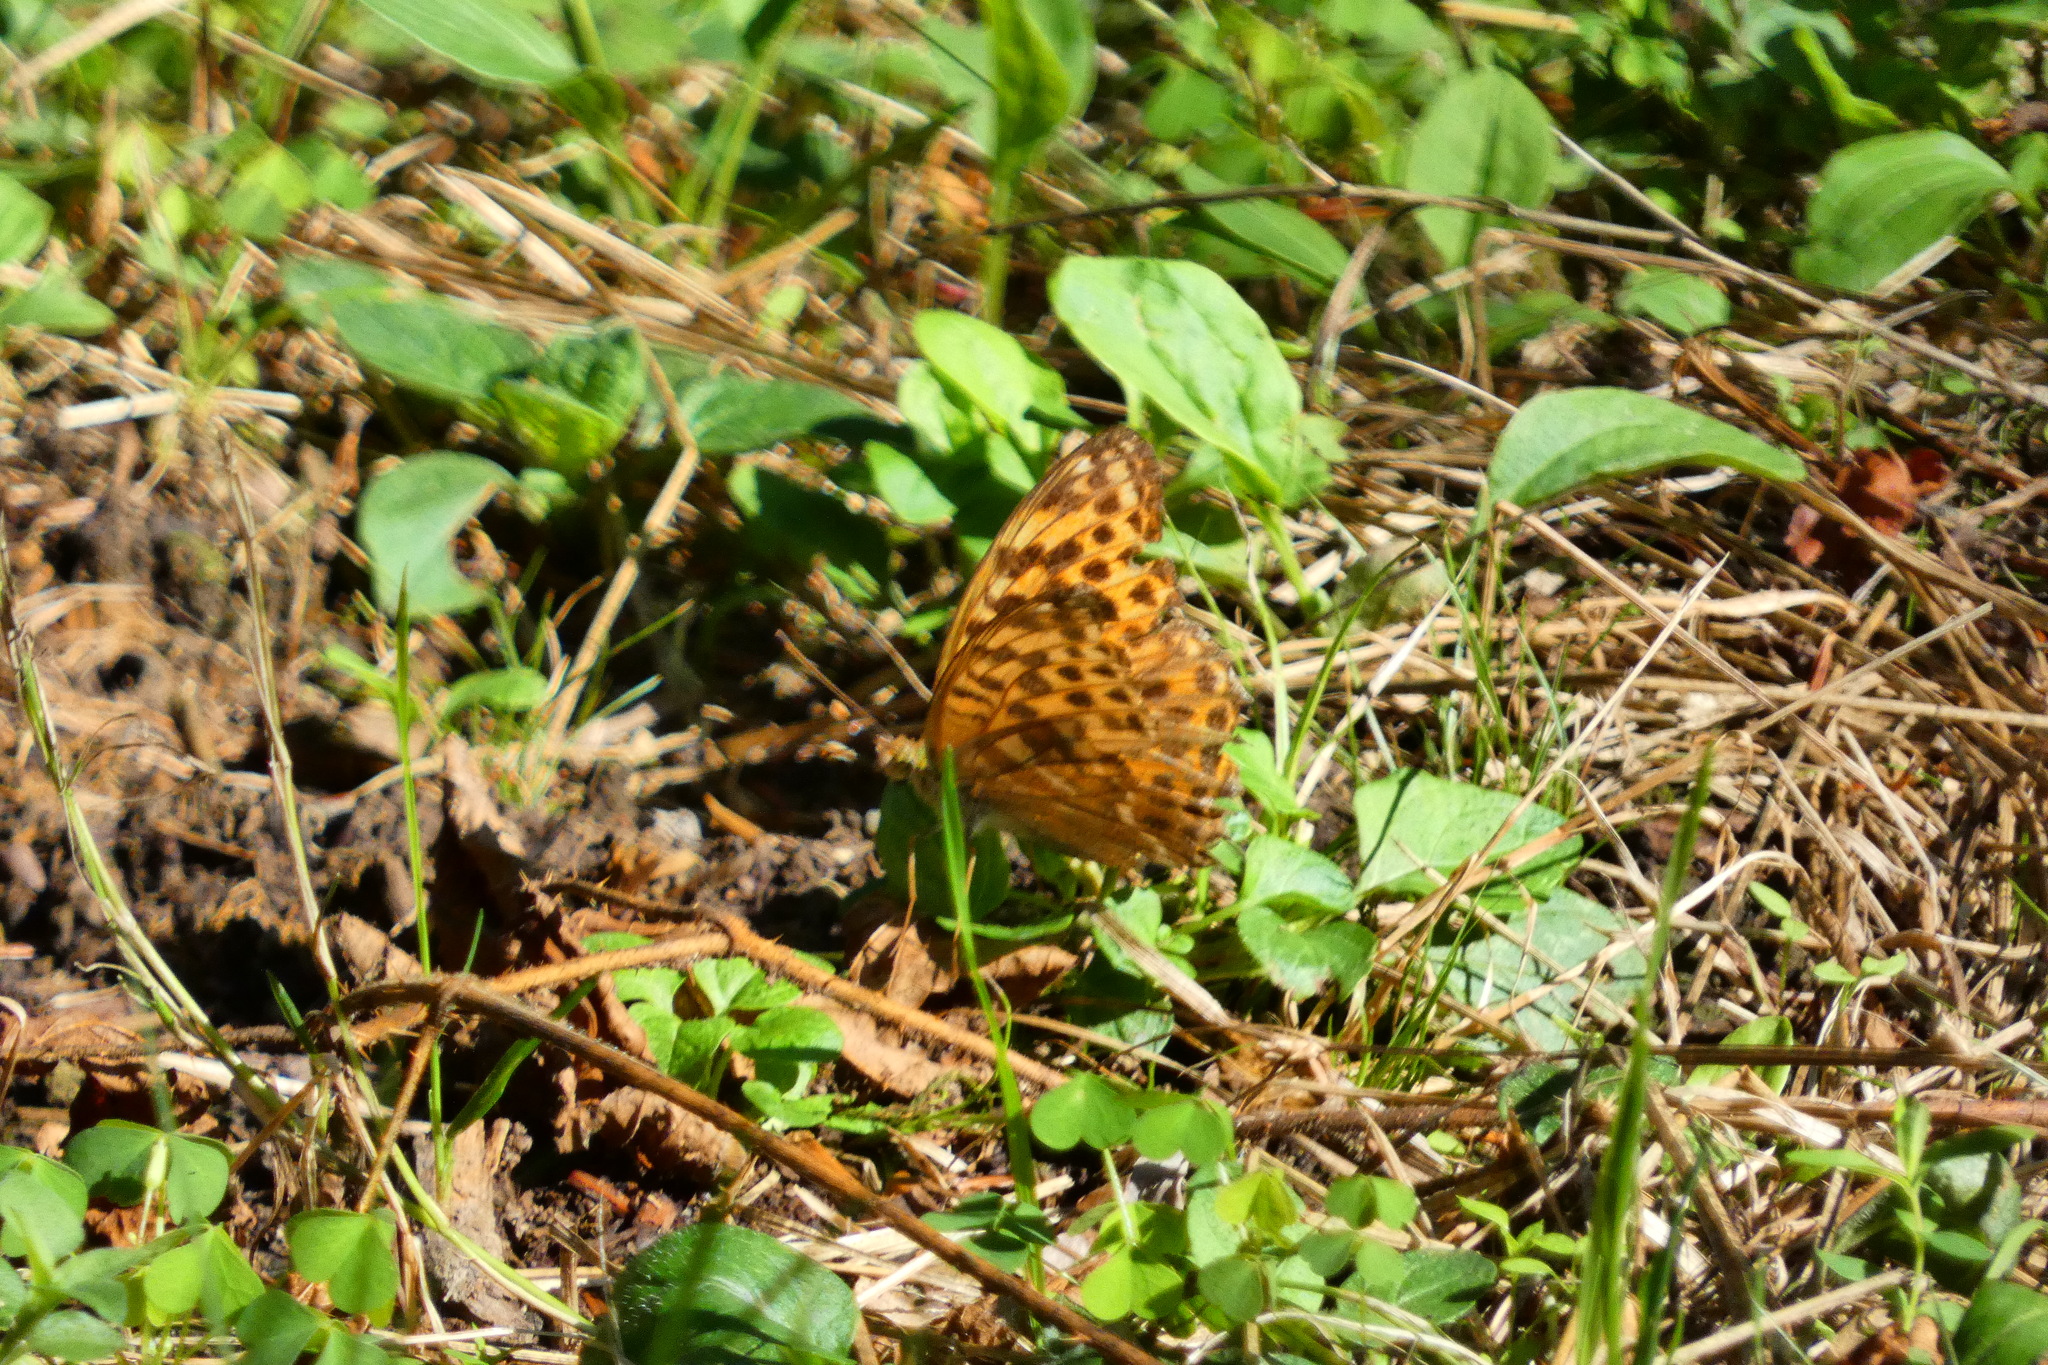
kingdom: Animalia
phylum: Arthropoda
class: Insecta
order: Lepidoptera
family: Nymphalidae
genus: Argynnis
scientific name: Argynnis paphia
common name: Silver-washed fritillary
